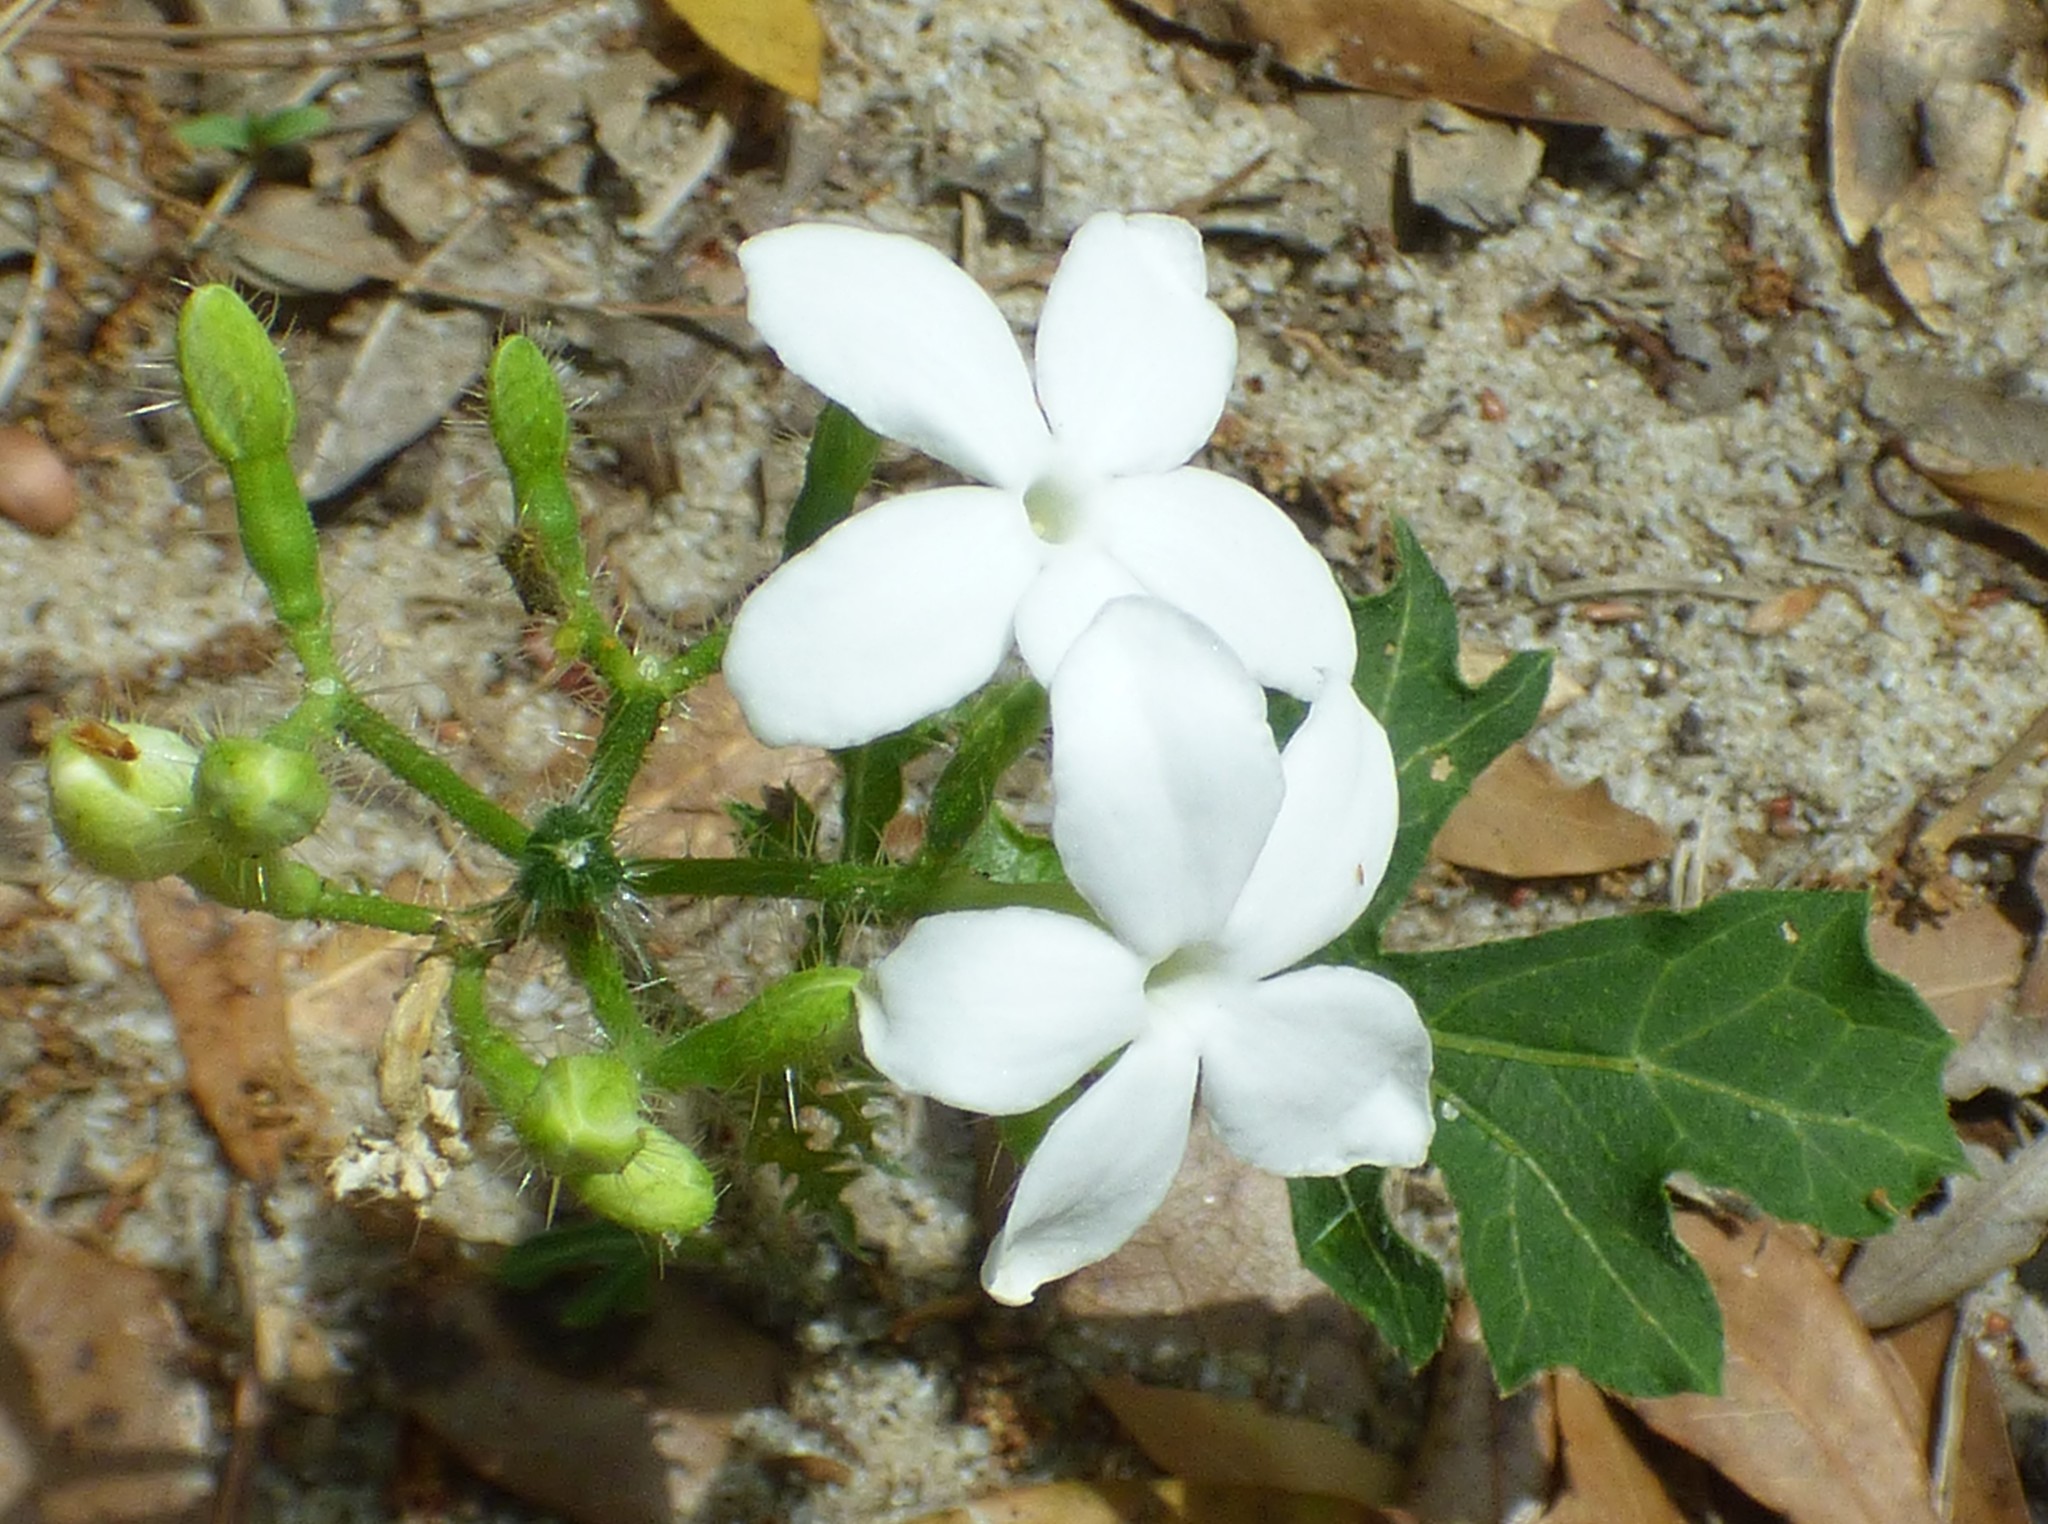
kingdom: Plantae
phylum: Tracheophyta
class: Magnoliopsida
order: Malpighiales
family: Euphorbiaceae
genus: Cnidoscolus
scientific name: Cnidoscolus stimulosus
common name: Bull-nettle
